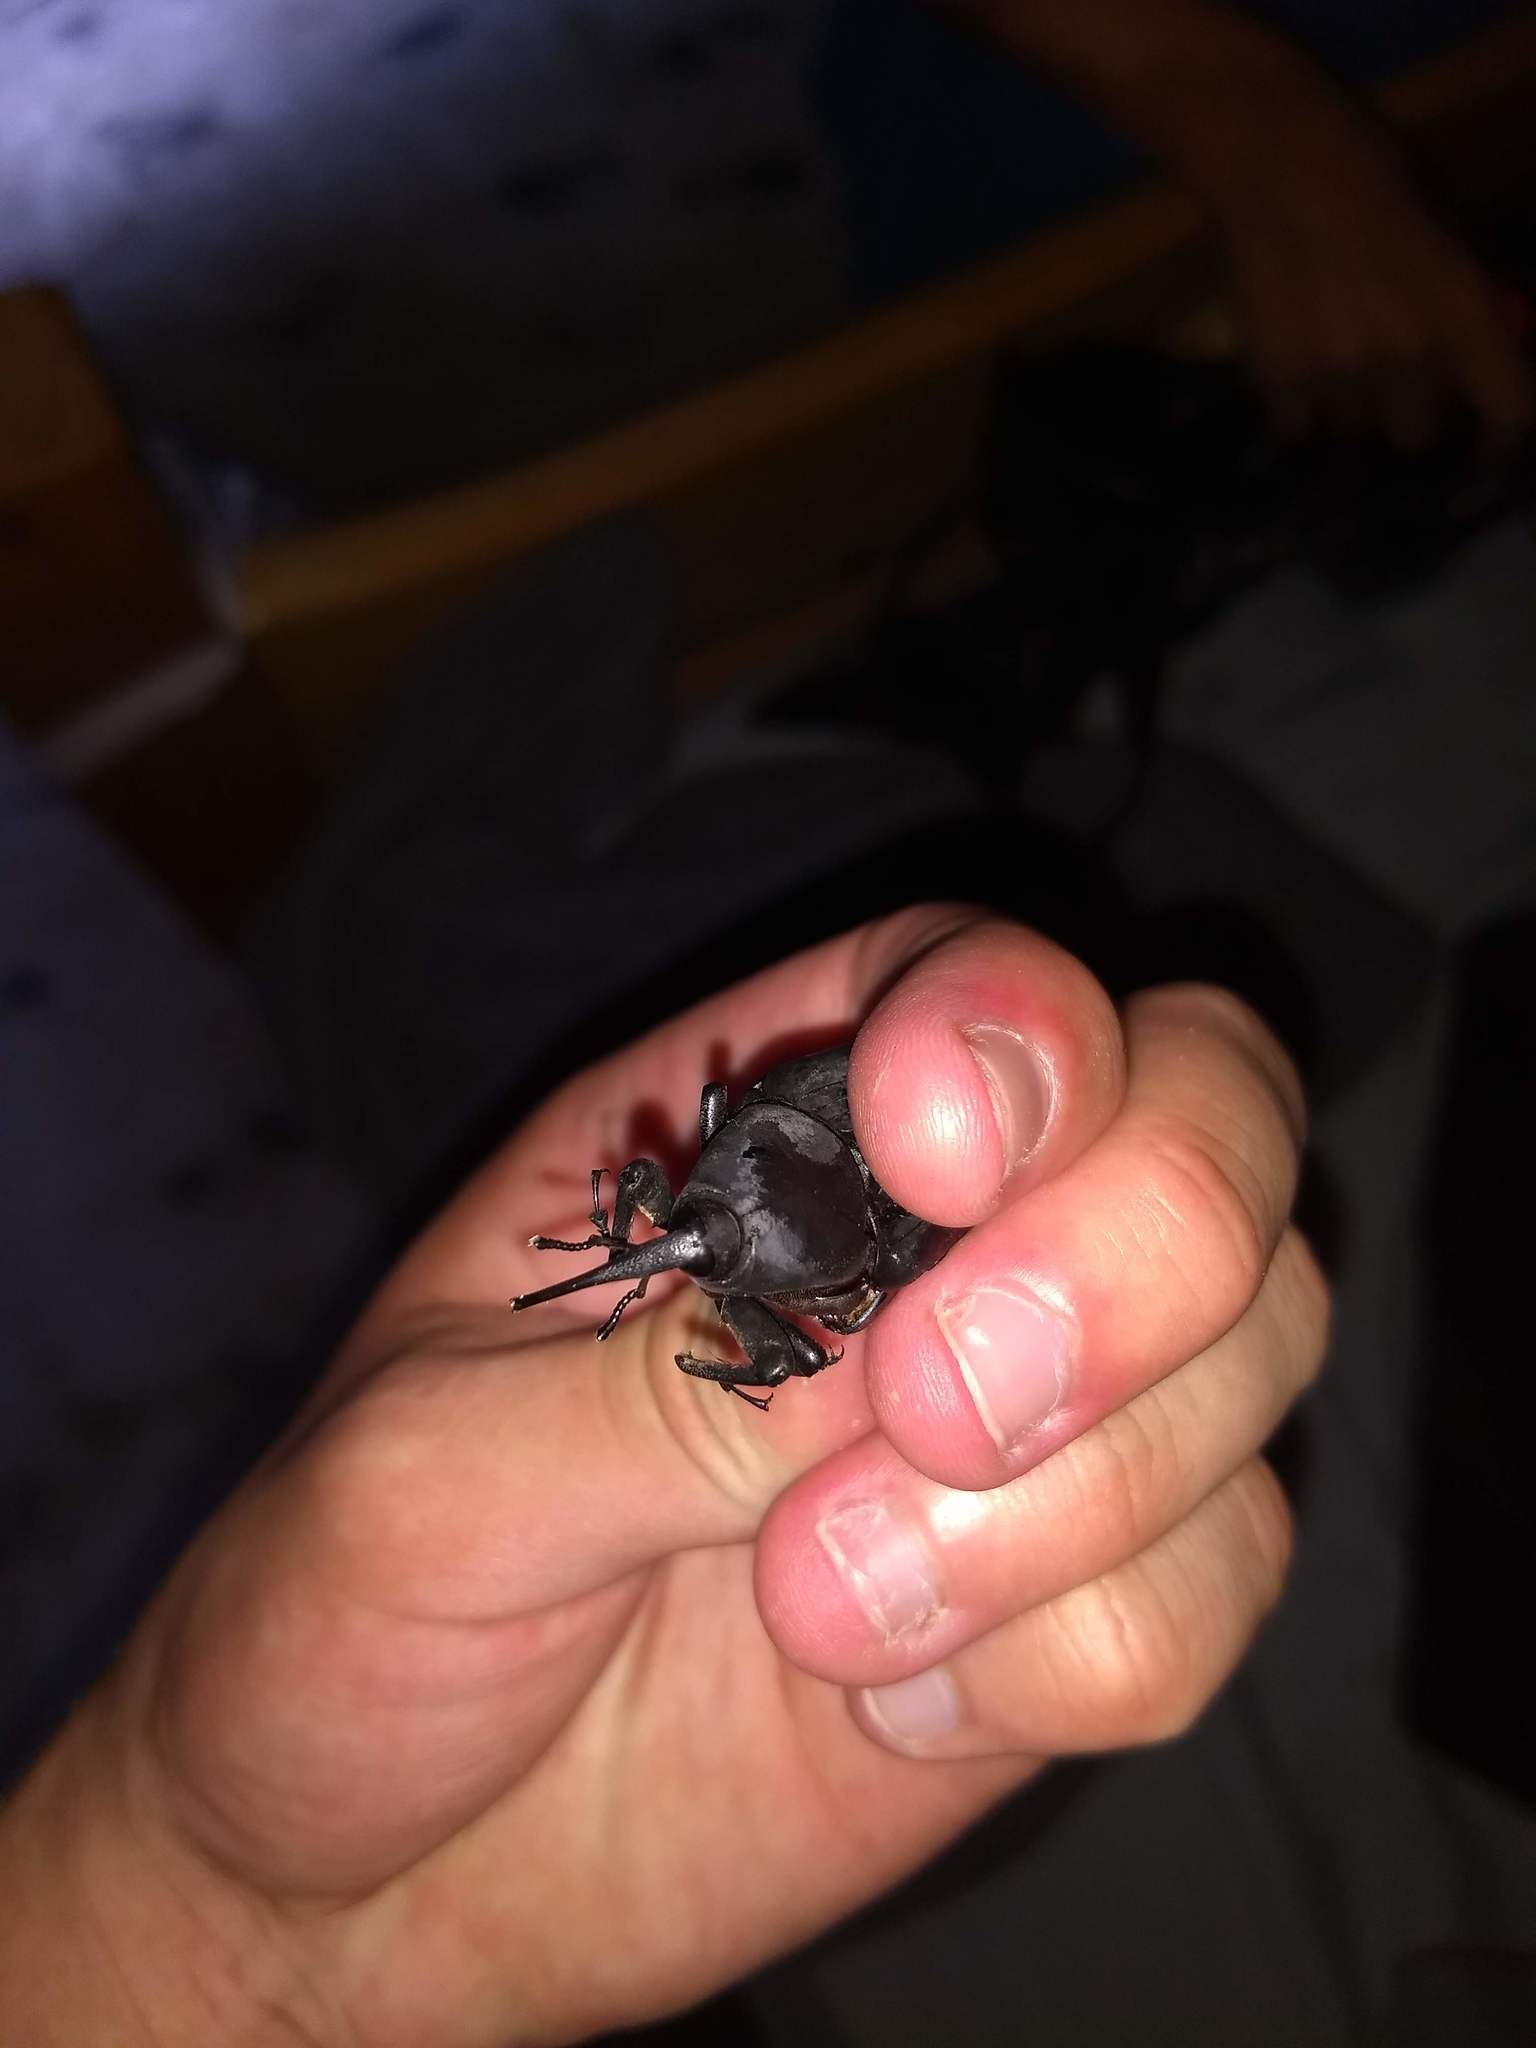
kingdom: Animalia
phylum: Arthropoda
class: Insecta
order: Coleoptera
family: Dryophthoridae
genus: Dynamis
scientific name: Dynamis borassi
